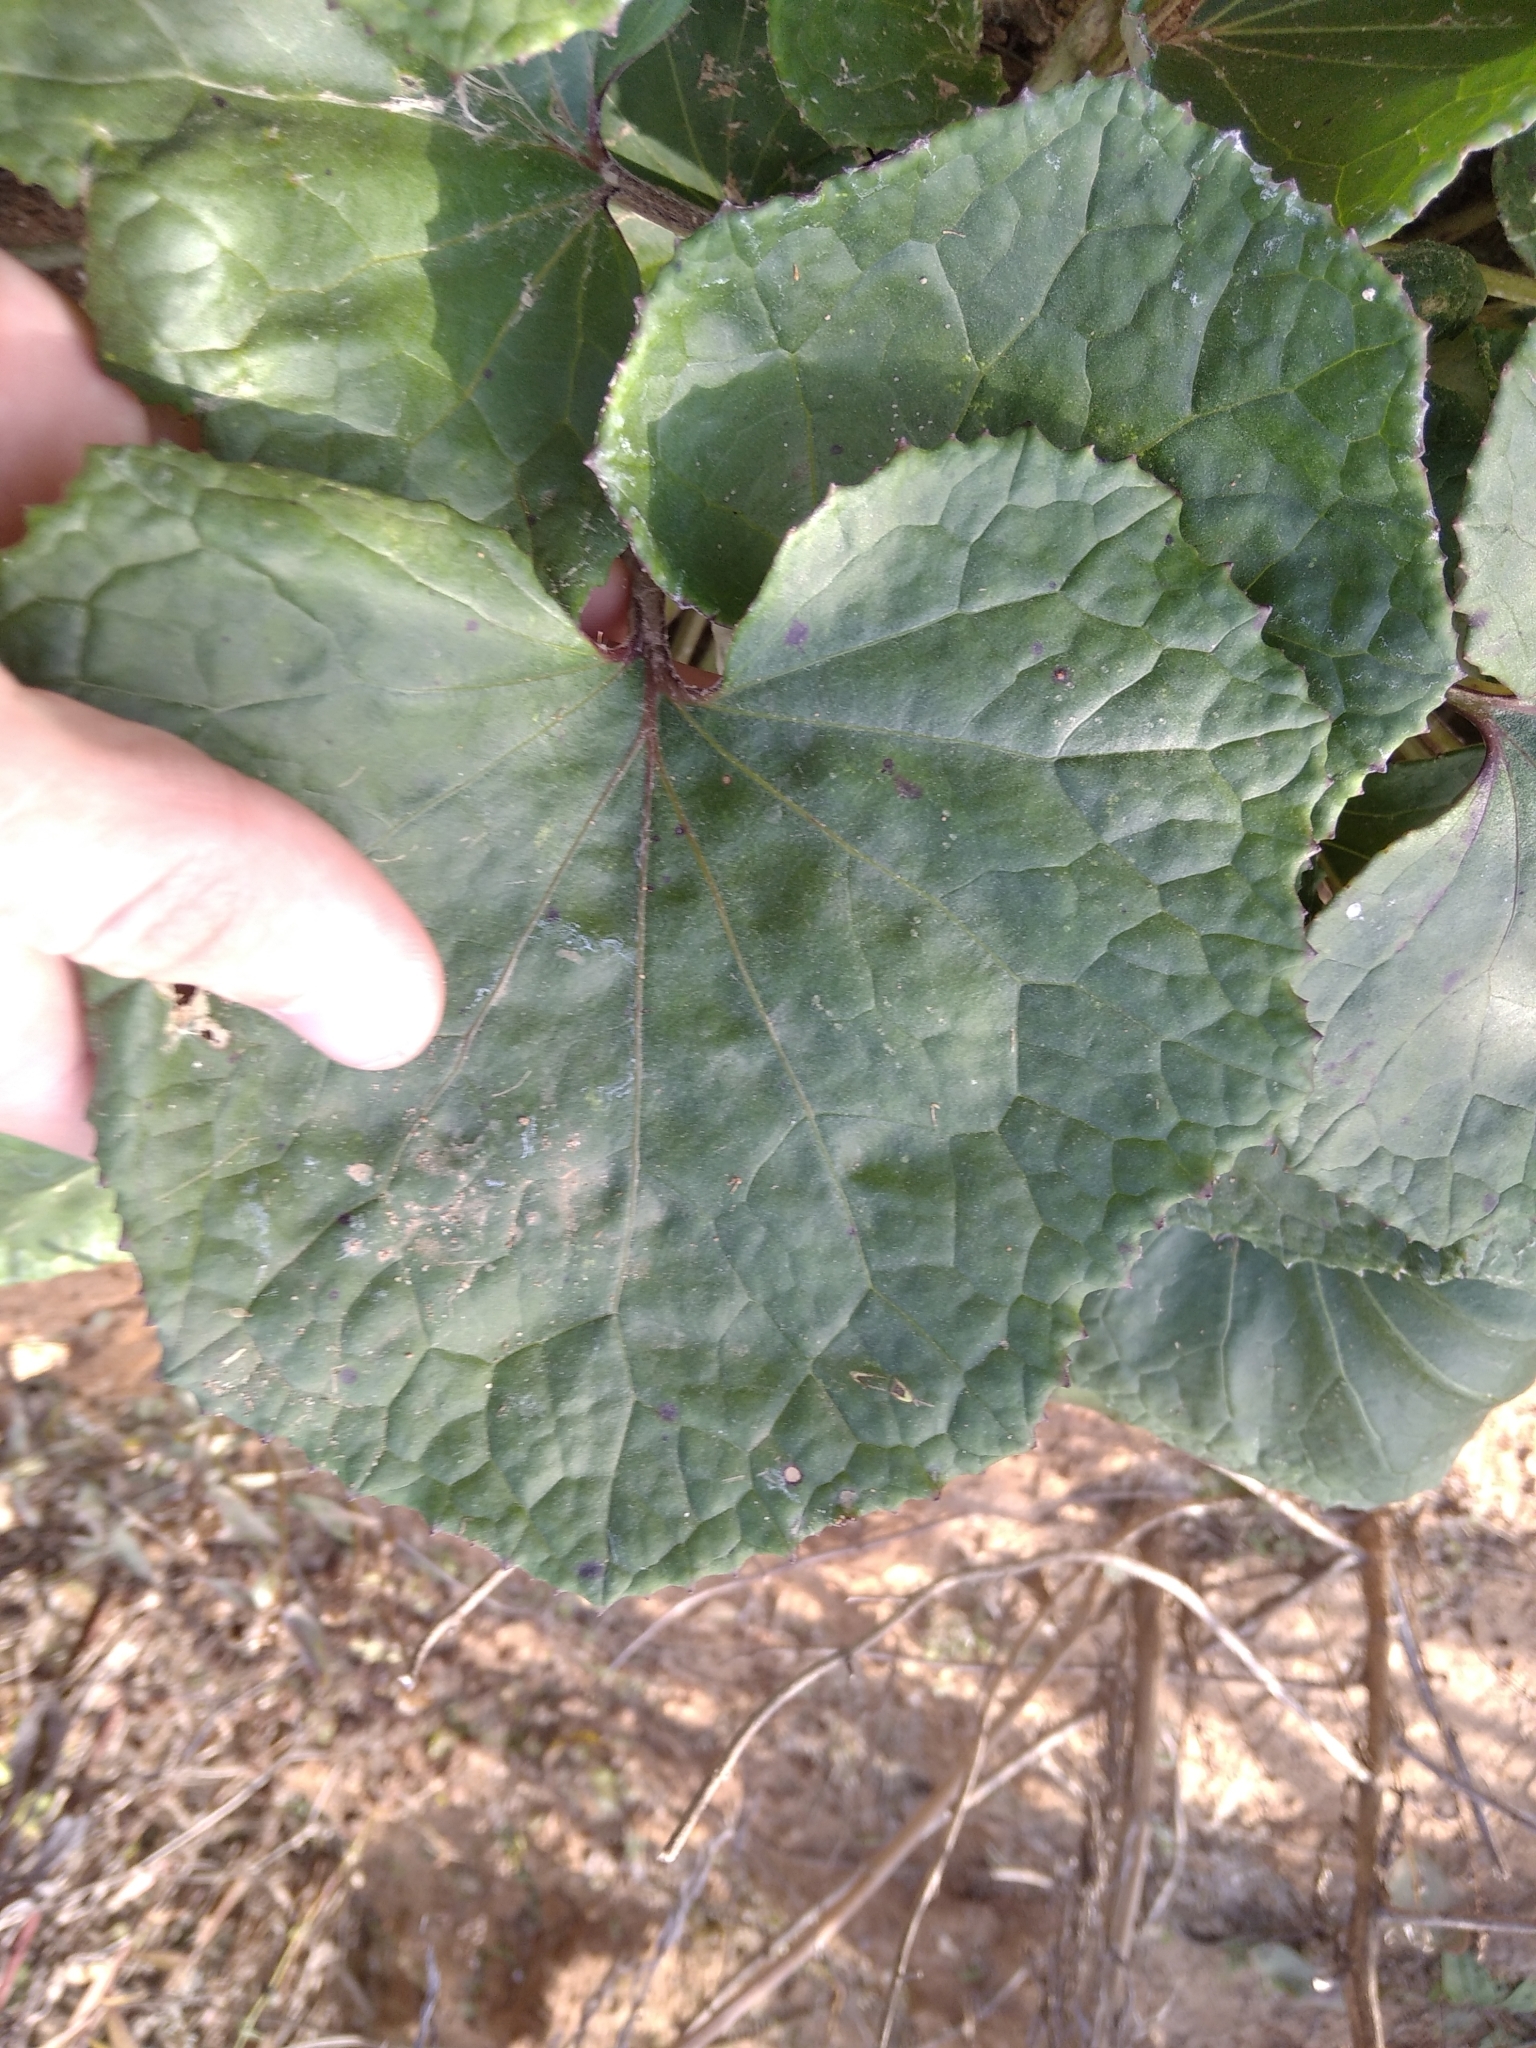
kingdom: Plantae
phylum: Tracheophyta
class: Magnoliopsida
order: Asterales
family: Asteraceae
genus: Tussilago
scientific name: Tussilago farfara
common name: Coltsfoot
